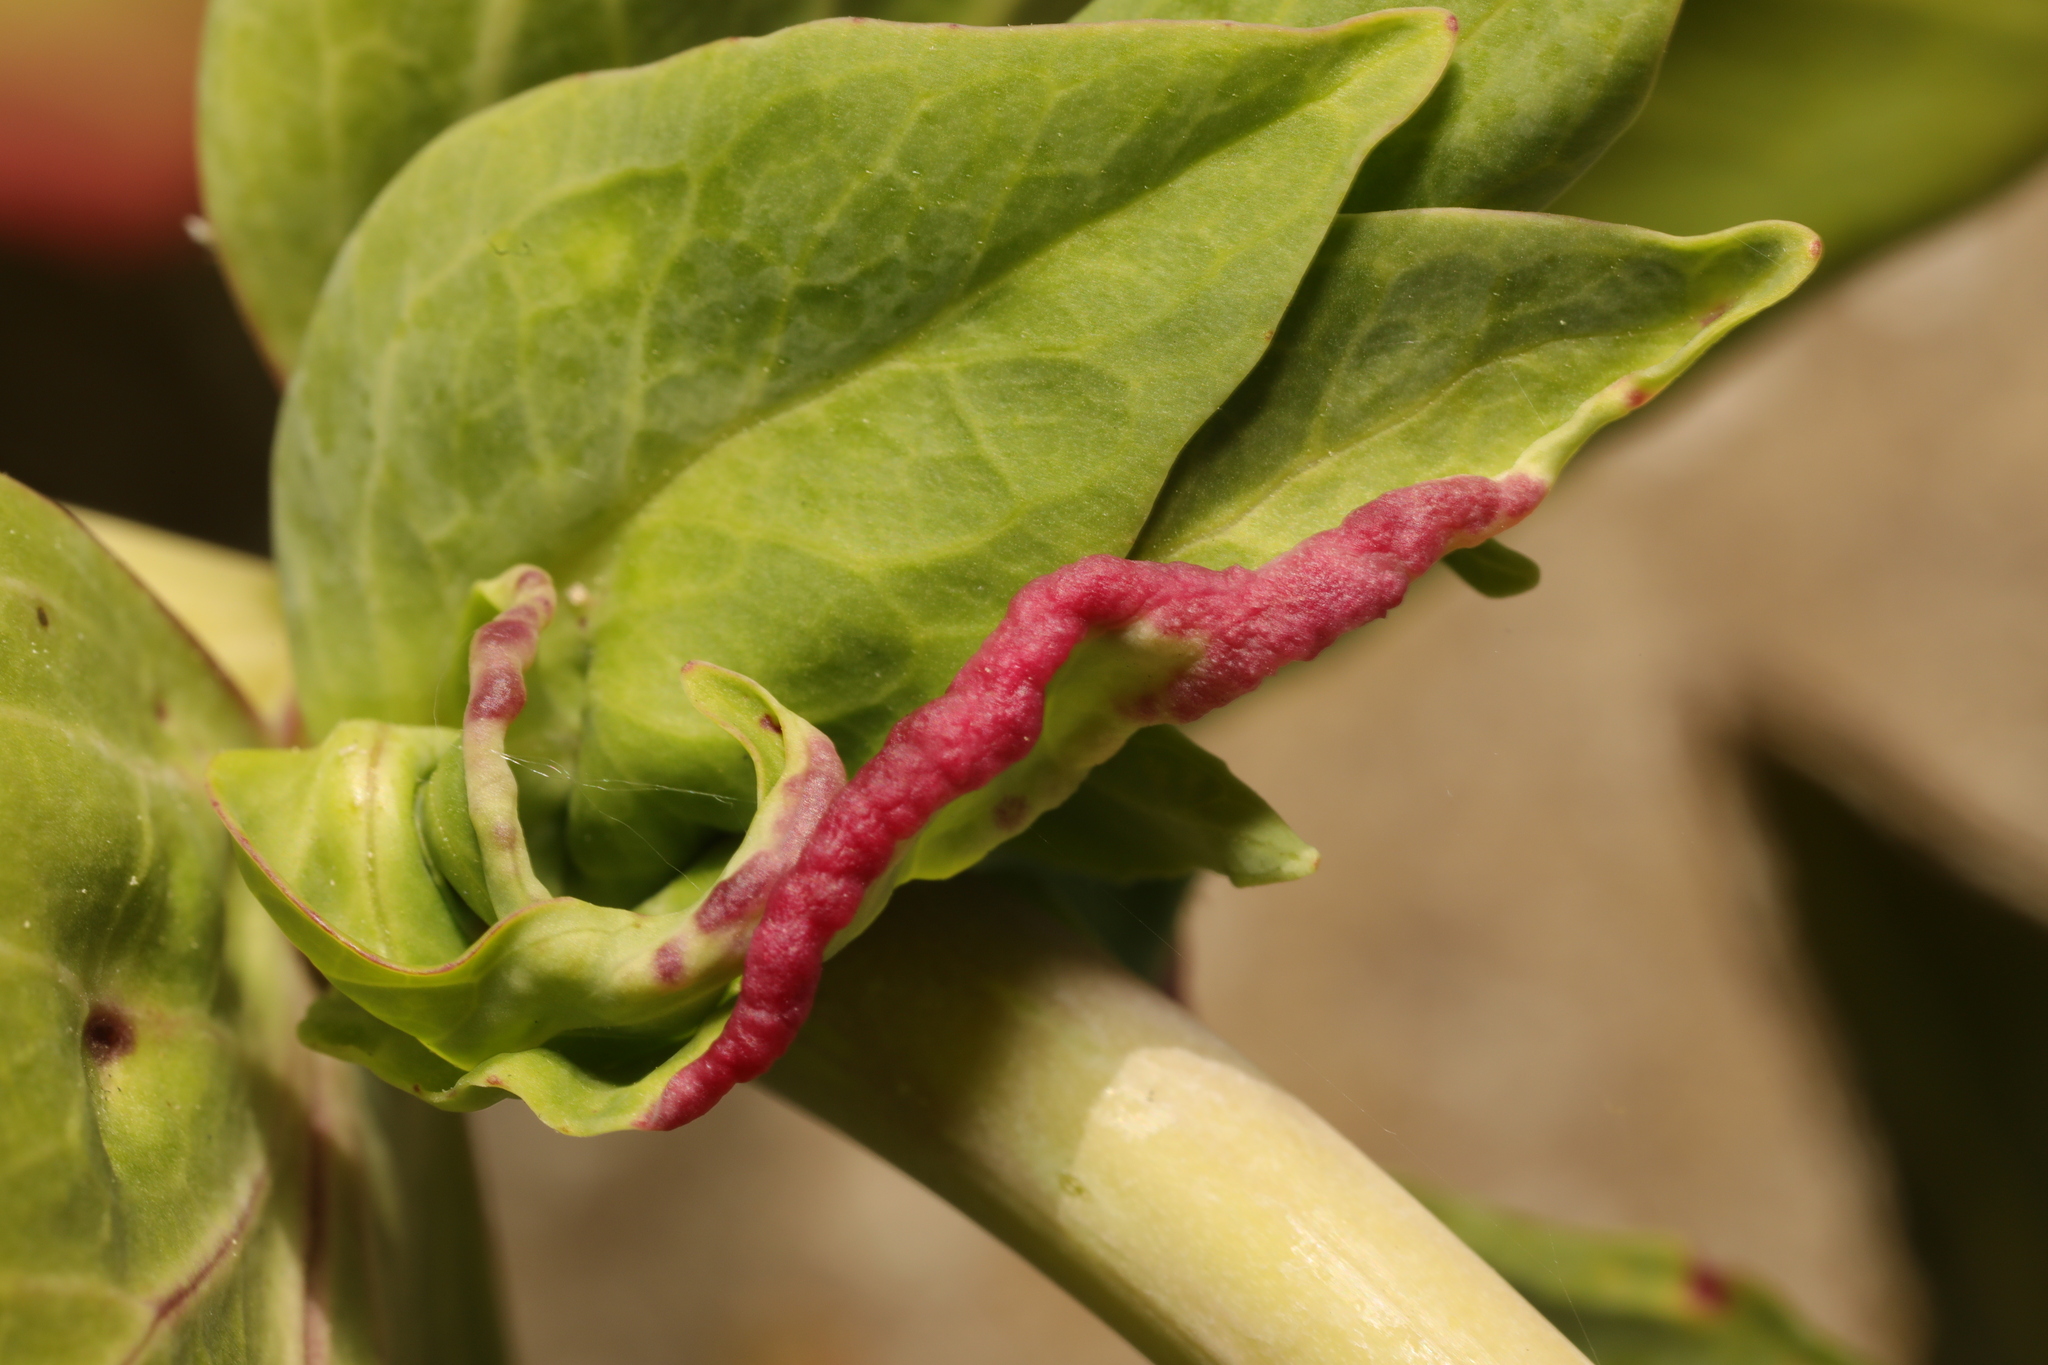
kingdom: Animalia
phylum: Arthropoda
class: Insecta
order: Hemiptera
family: Triozidae
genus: Trioza
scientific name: Trioza centranthi
